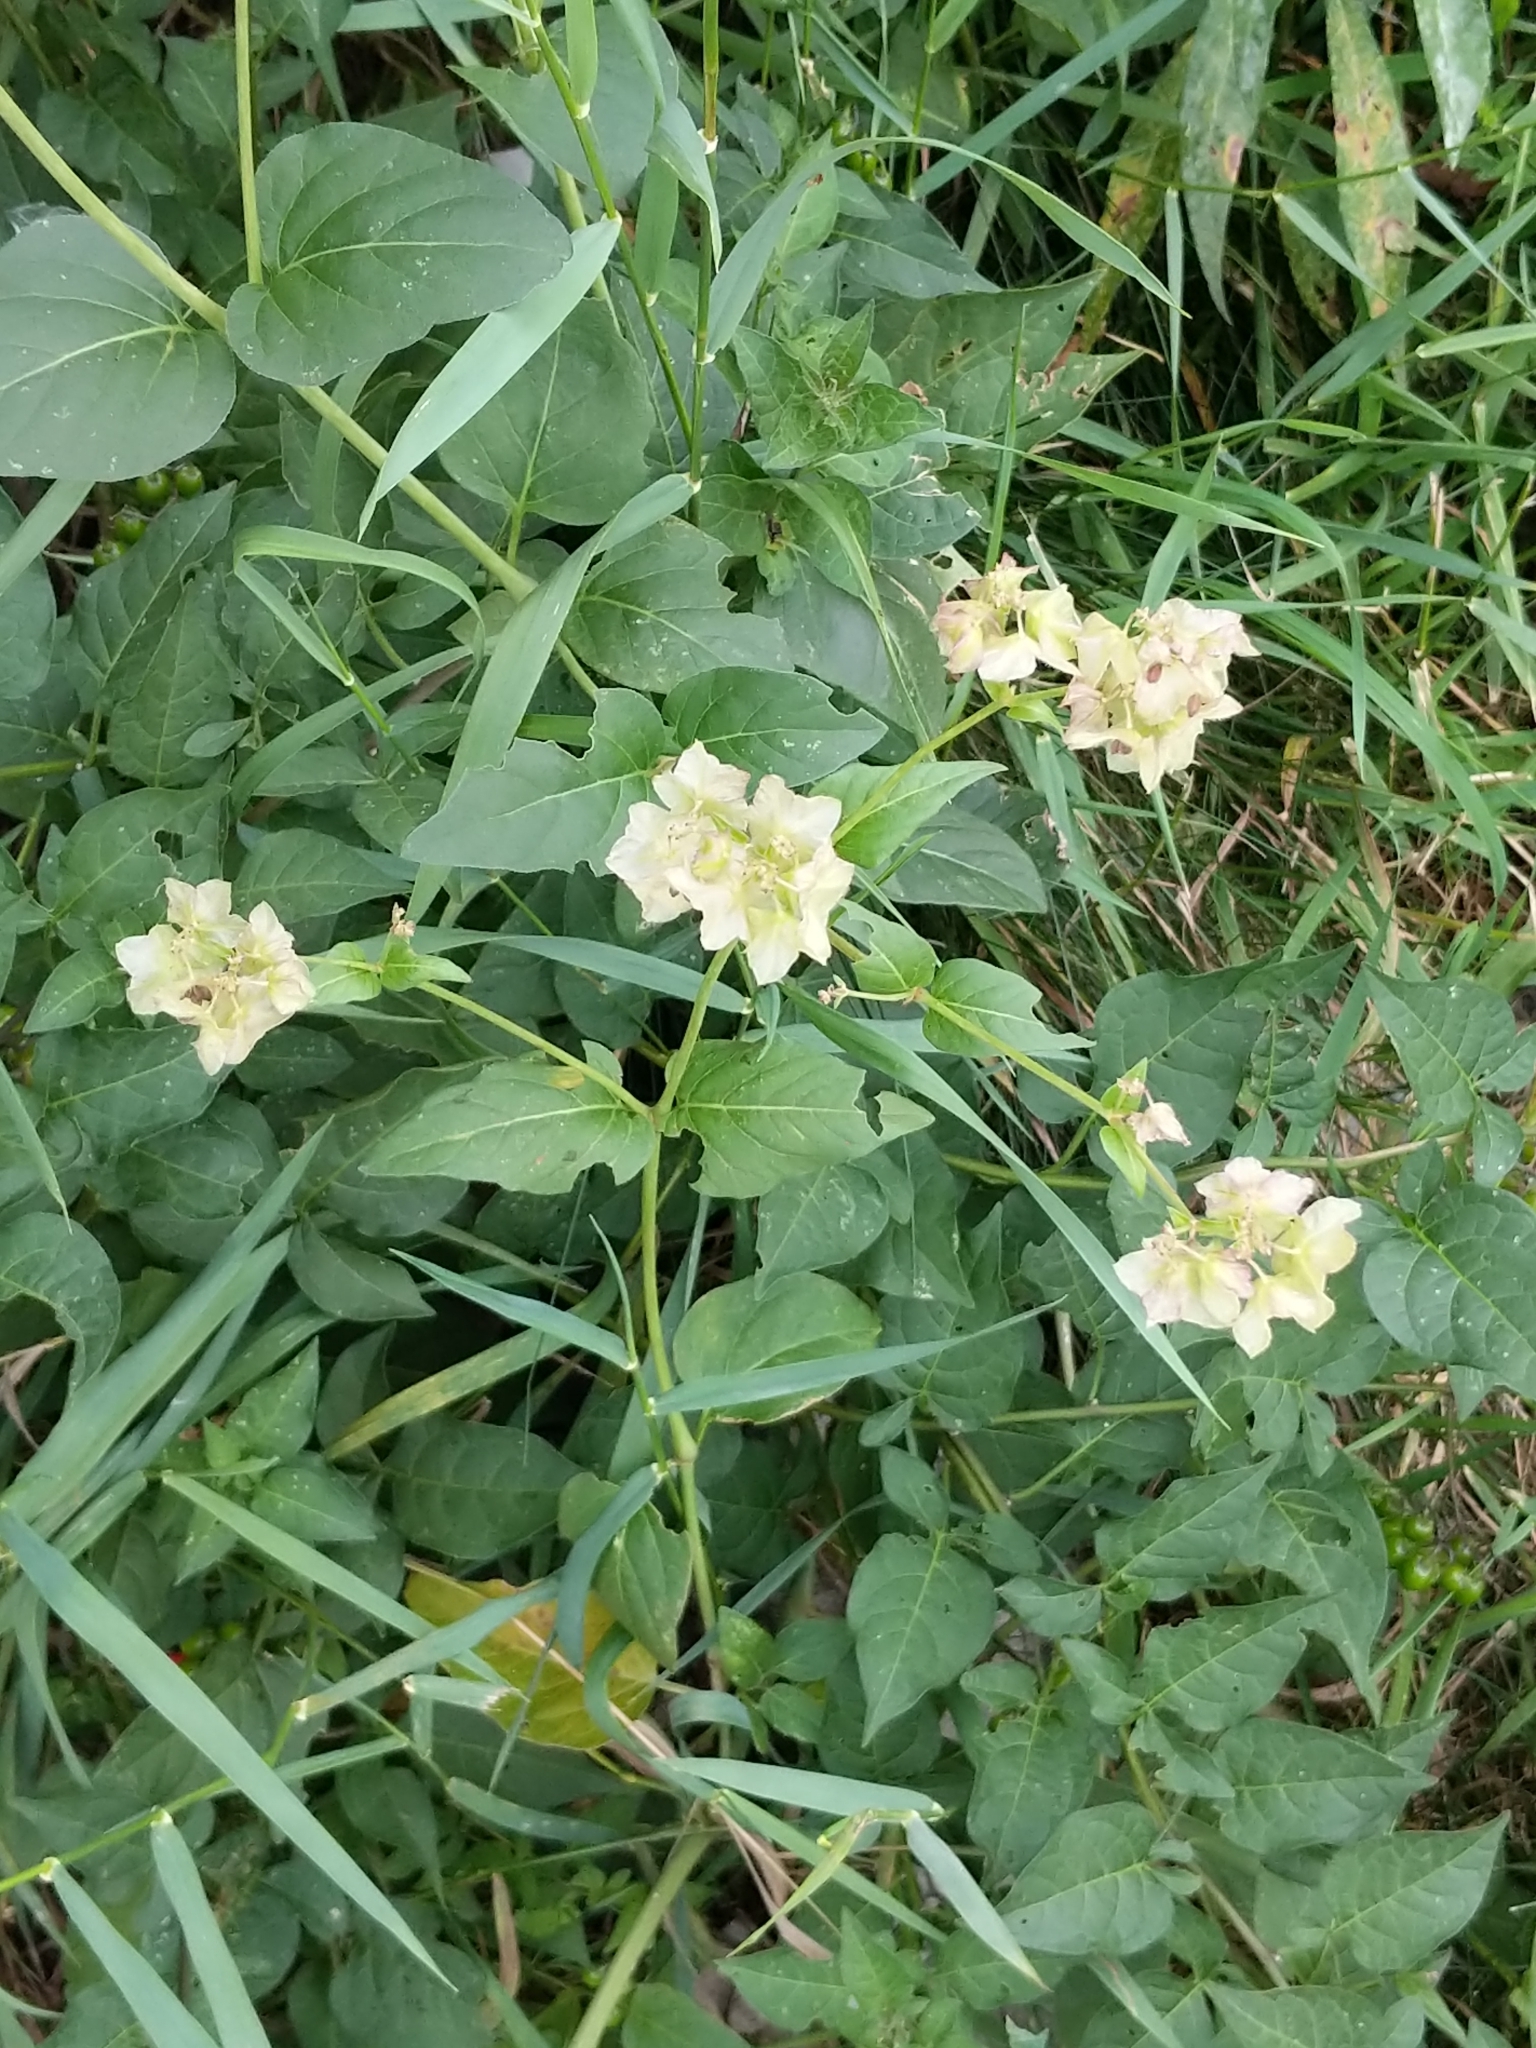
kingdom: Plantae
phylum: Tracheophyta
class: Magnoliopsida
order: Caryophyllales
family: Nyctaginaceae
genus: Mirabilis
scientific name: Mirabilis nyctaginea
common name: Umbrella wort
